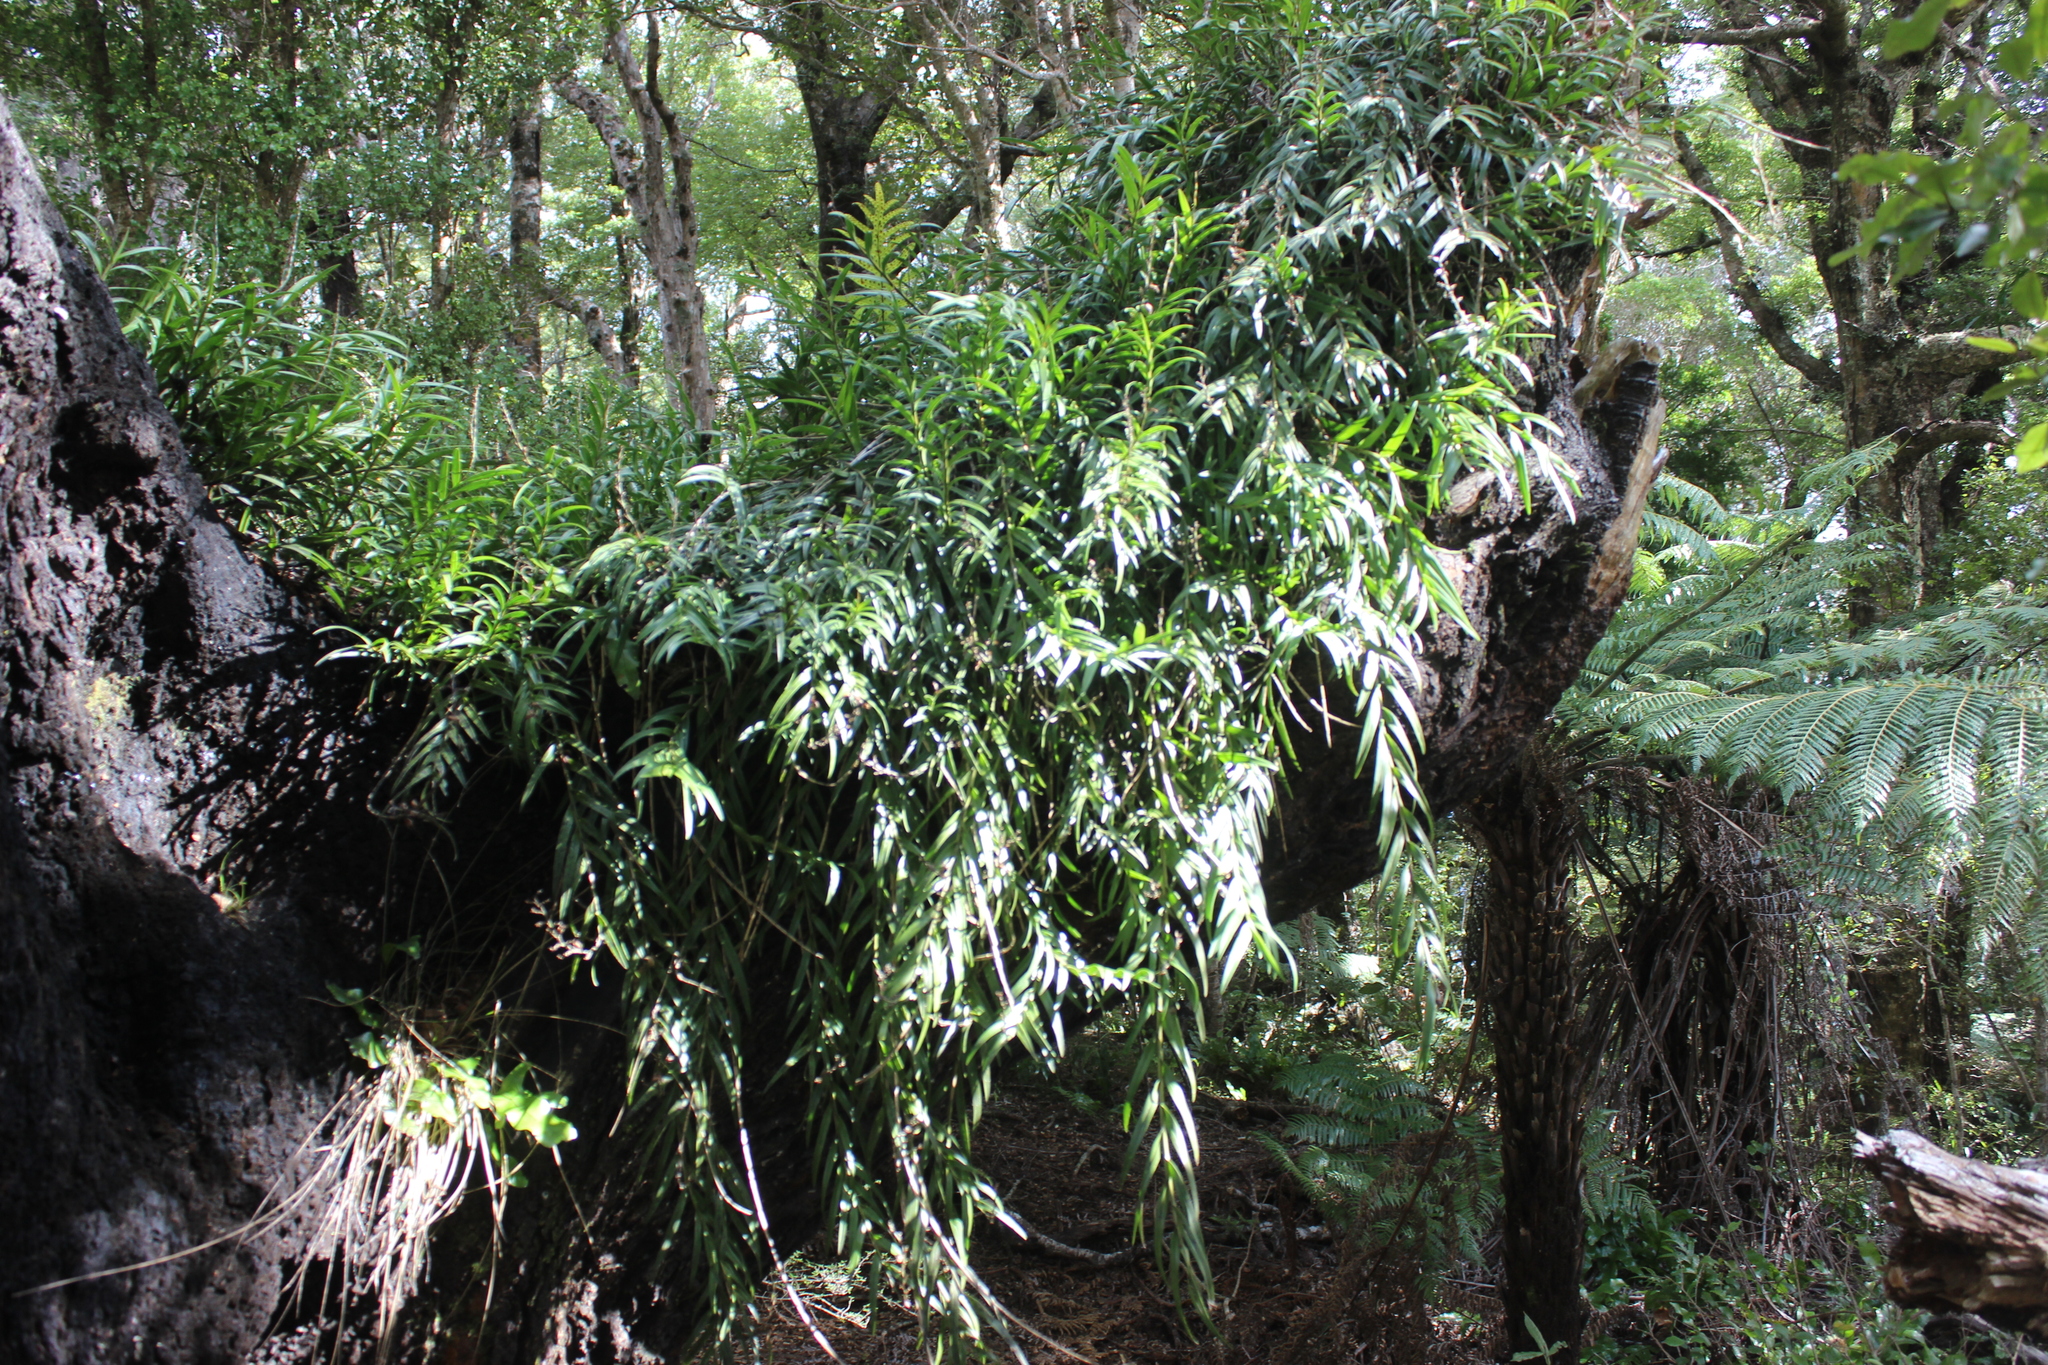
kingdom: Plantae
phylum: Tracheophyta
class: Liliopsida
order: Asparagales
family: Orchidaceae
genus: Earina
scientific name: Earina autumnalis
